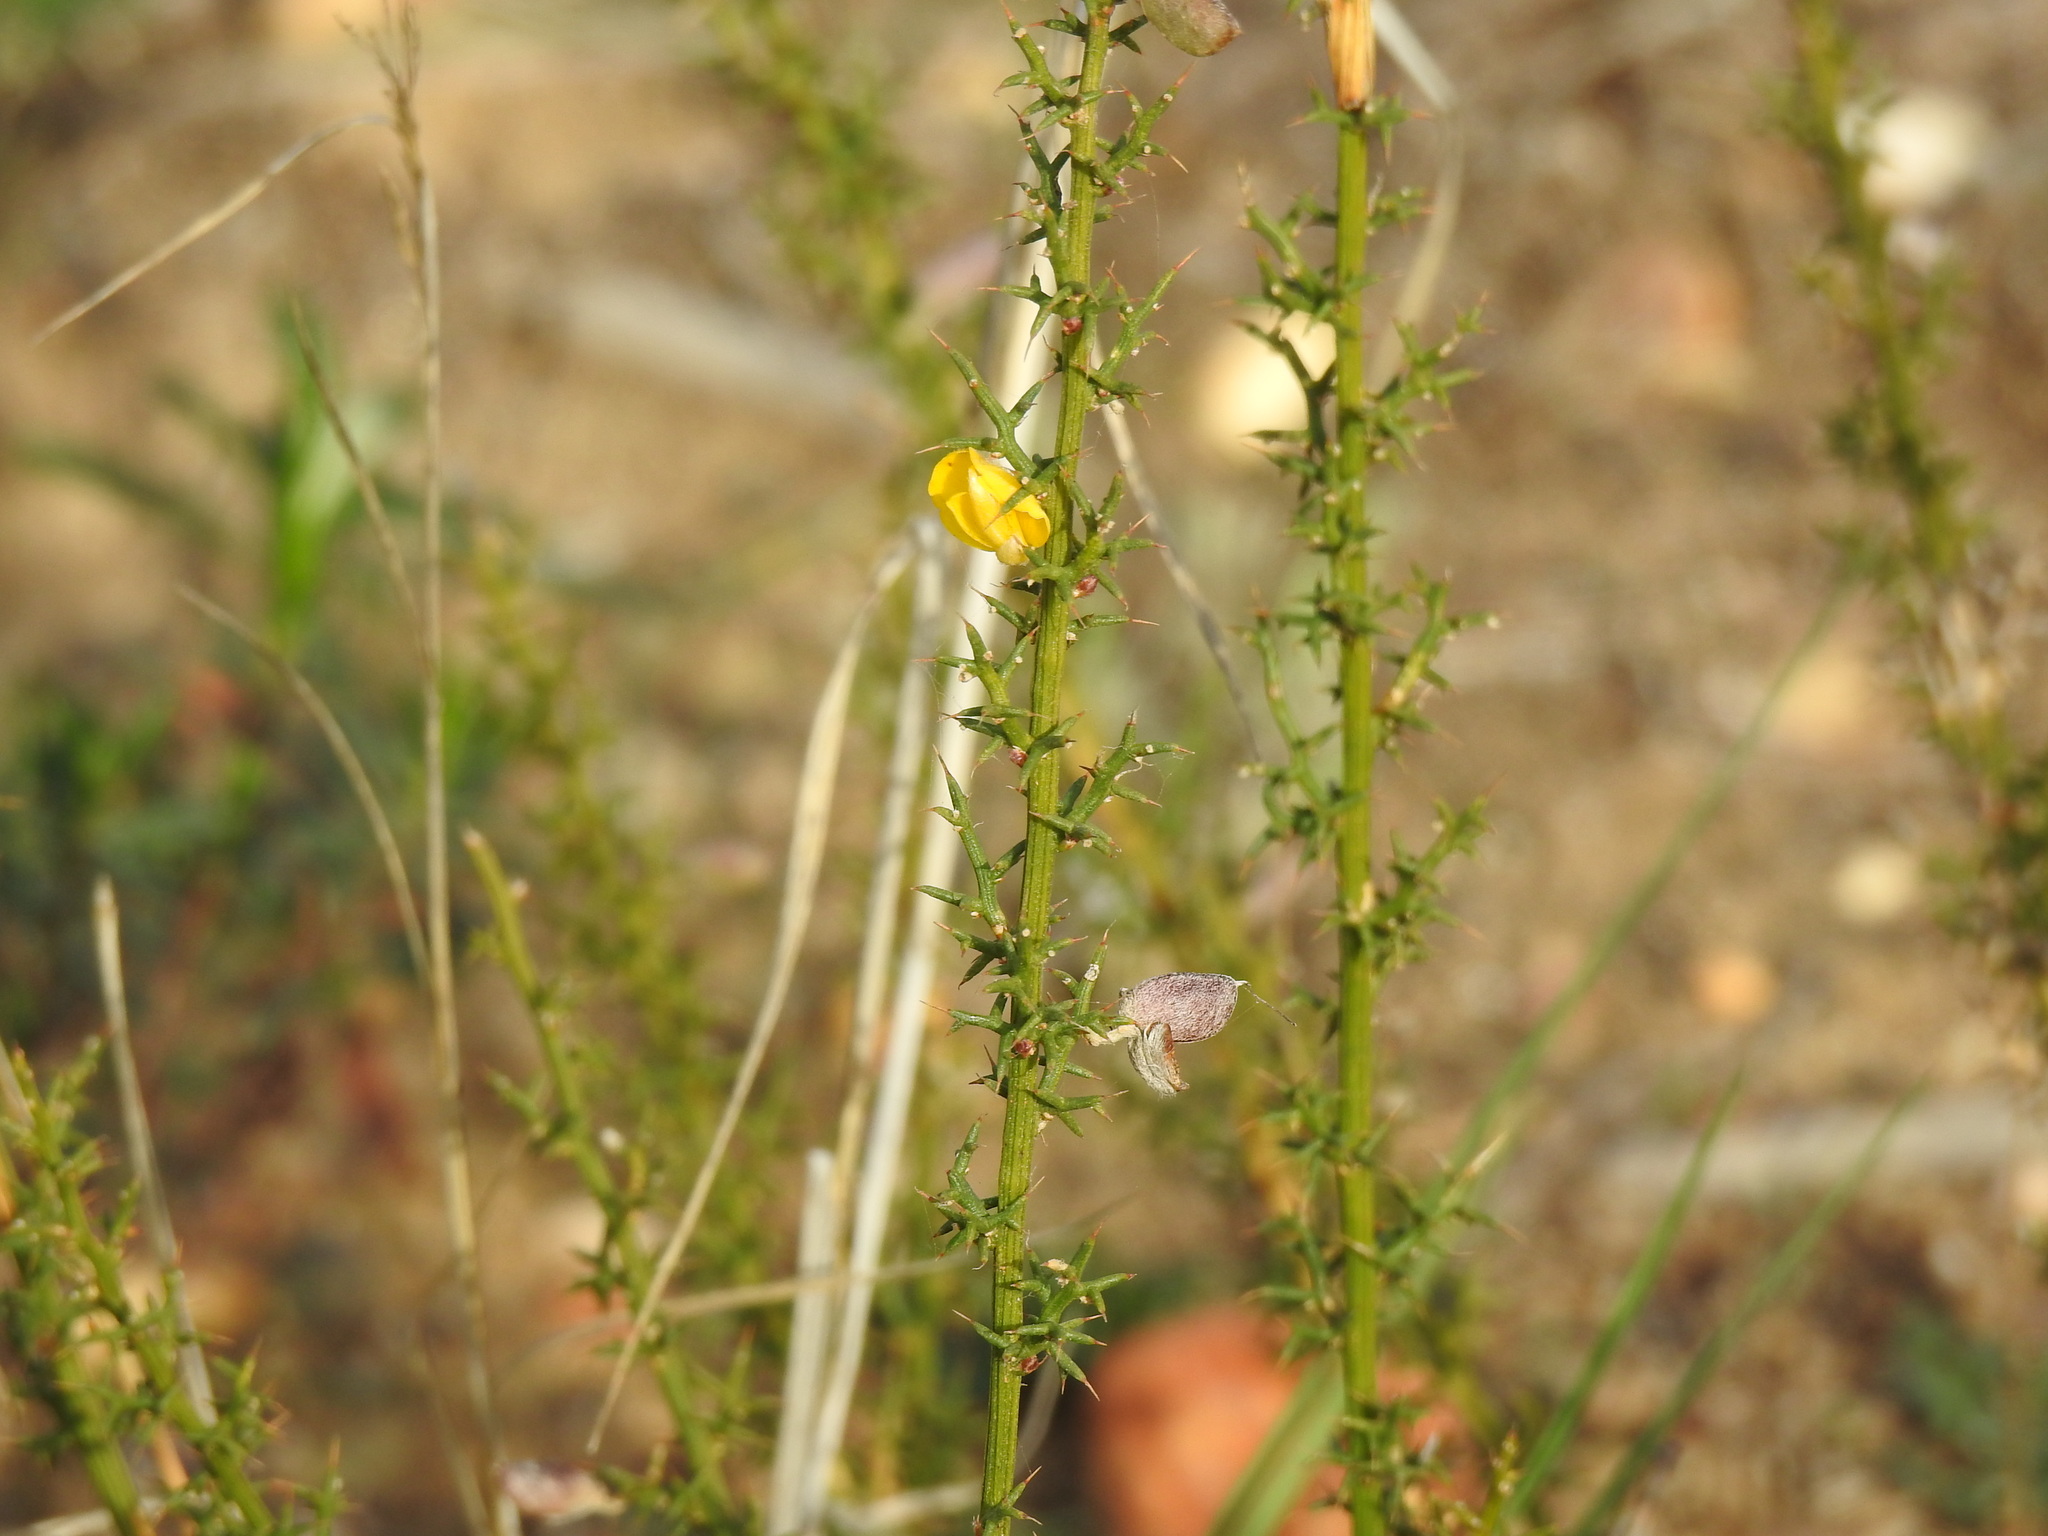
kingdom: Plantae
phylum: Tracheophyta
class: Magnoliopsida
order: Fabales
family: Fabaceae
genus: Stauracanthus
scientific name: Stauracanthus boivinii
